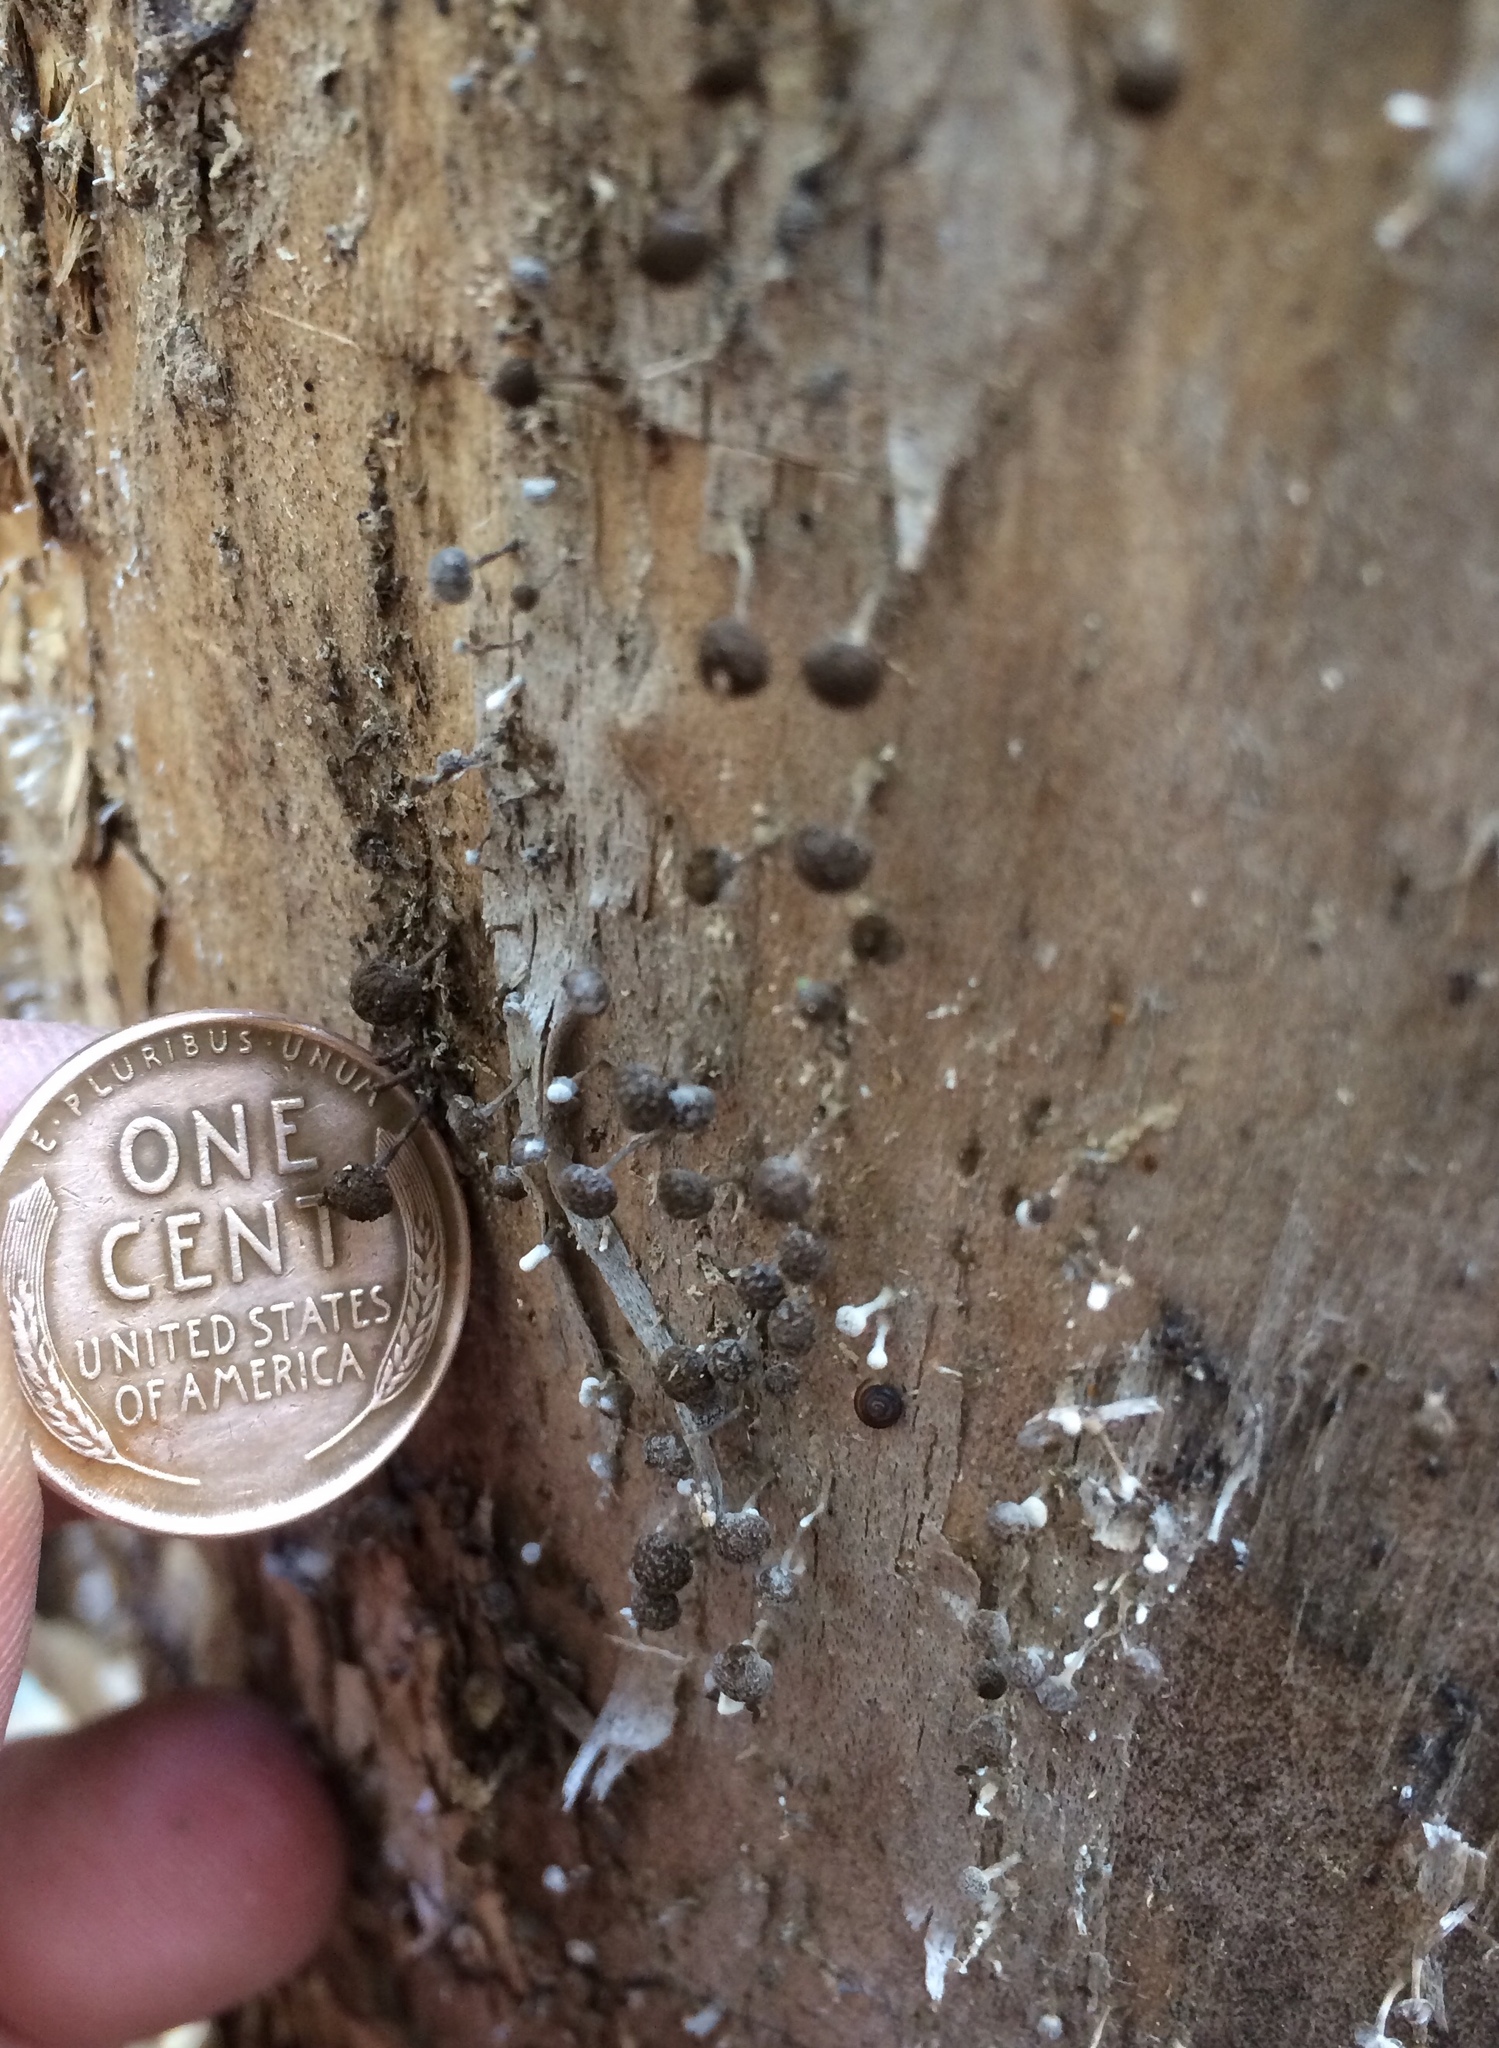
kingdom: Fungi
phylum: Basidiomycota
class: Atractiellomycetes
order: Atractiellales
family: Phleogenaceae
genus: Phleogena
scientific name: Phleogena faginea
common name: Fenugreek stalkball
